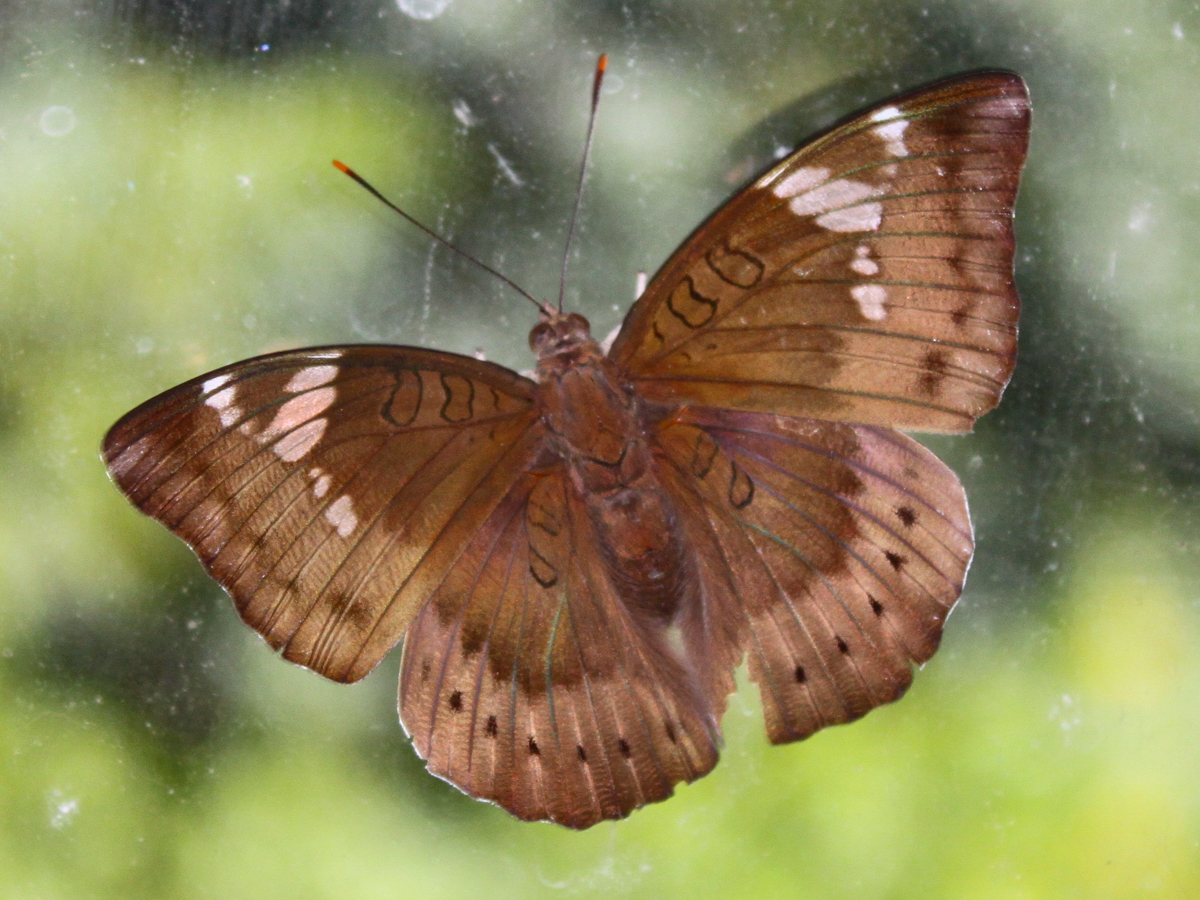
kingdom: Animalia
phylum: Arthropoda
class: Insecta
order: Lepidoptera
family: Nymphalidae
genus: Euthalia
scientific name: Euthalia aconthea
